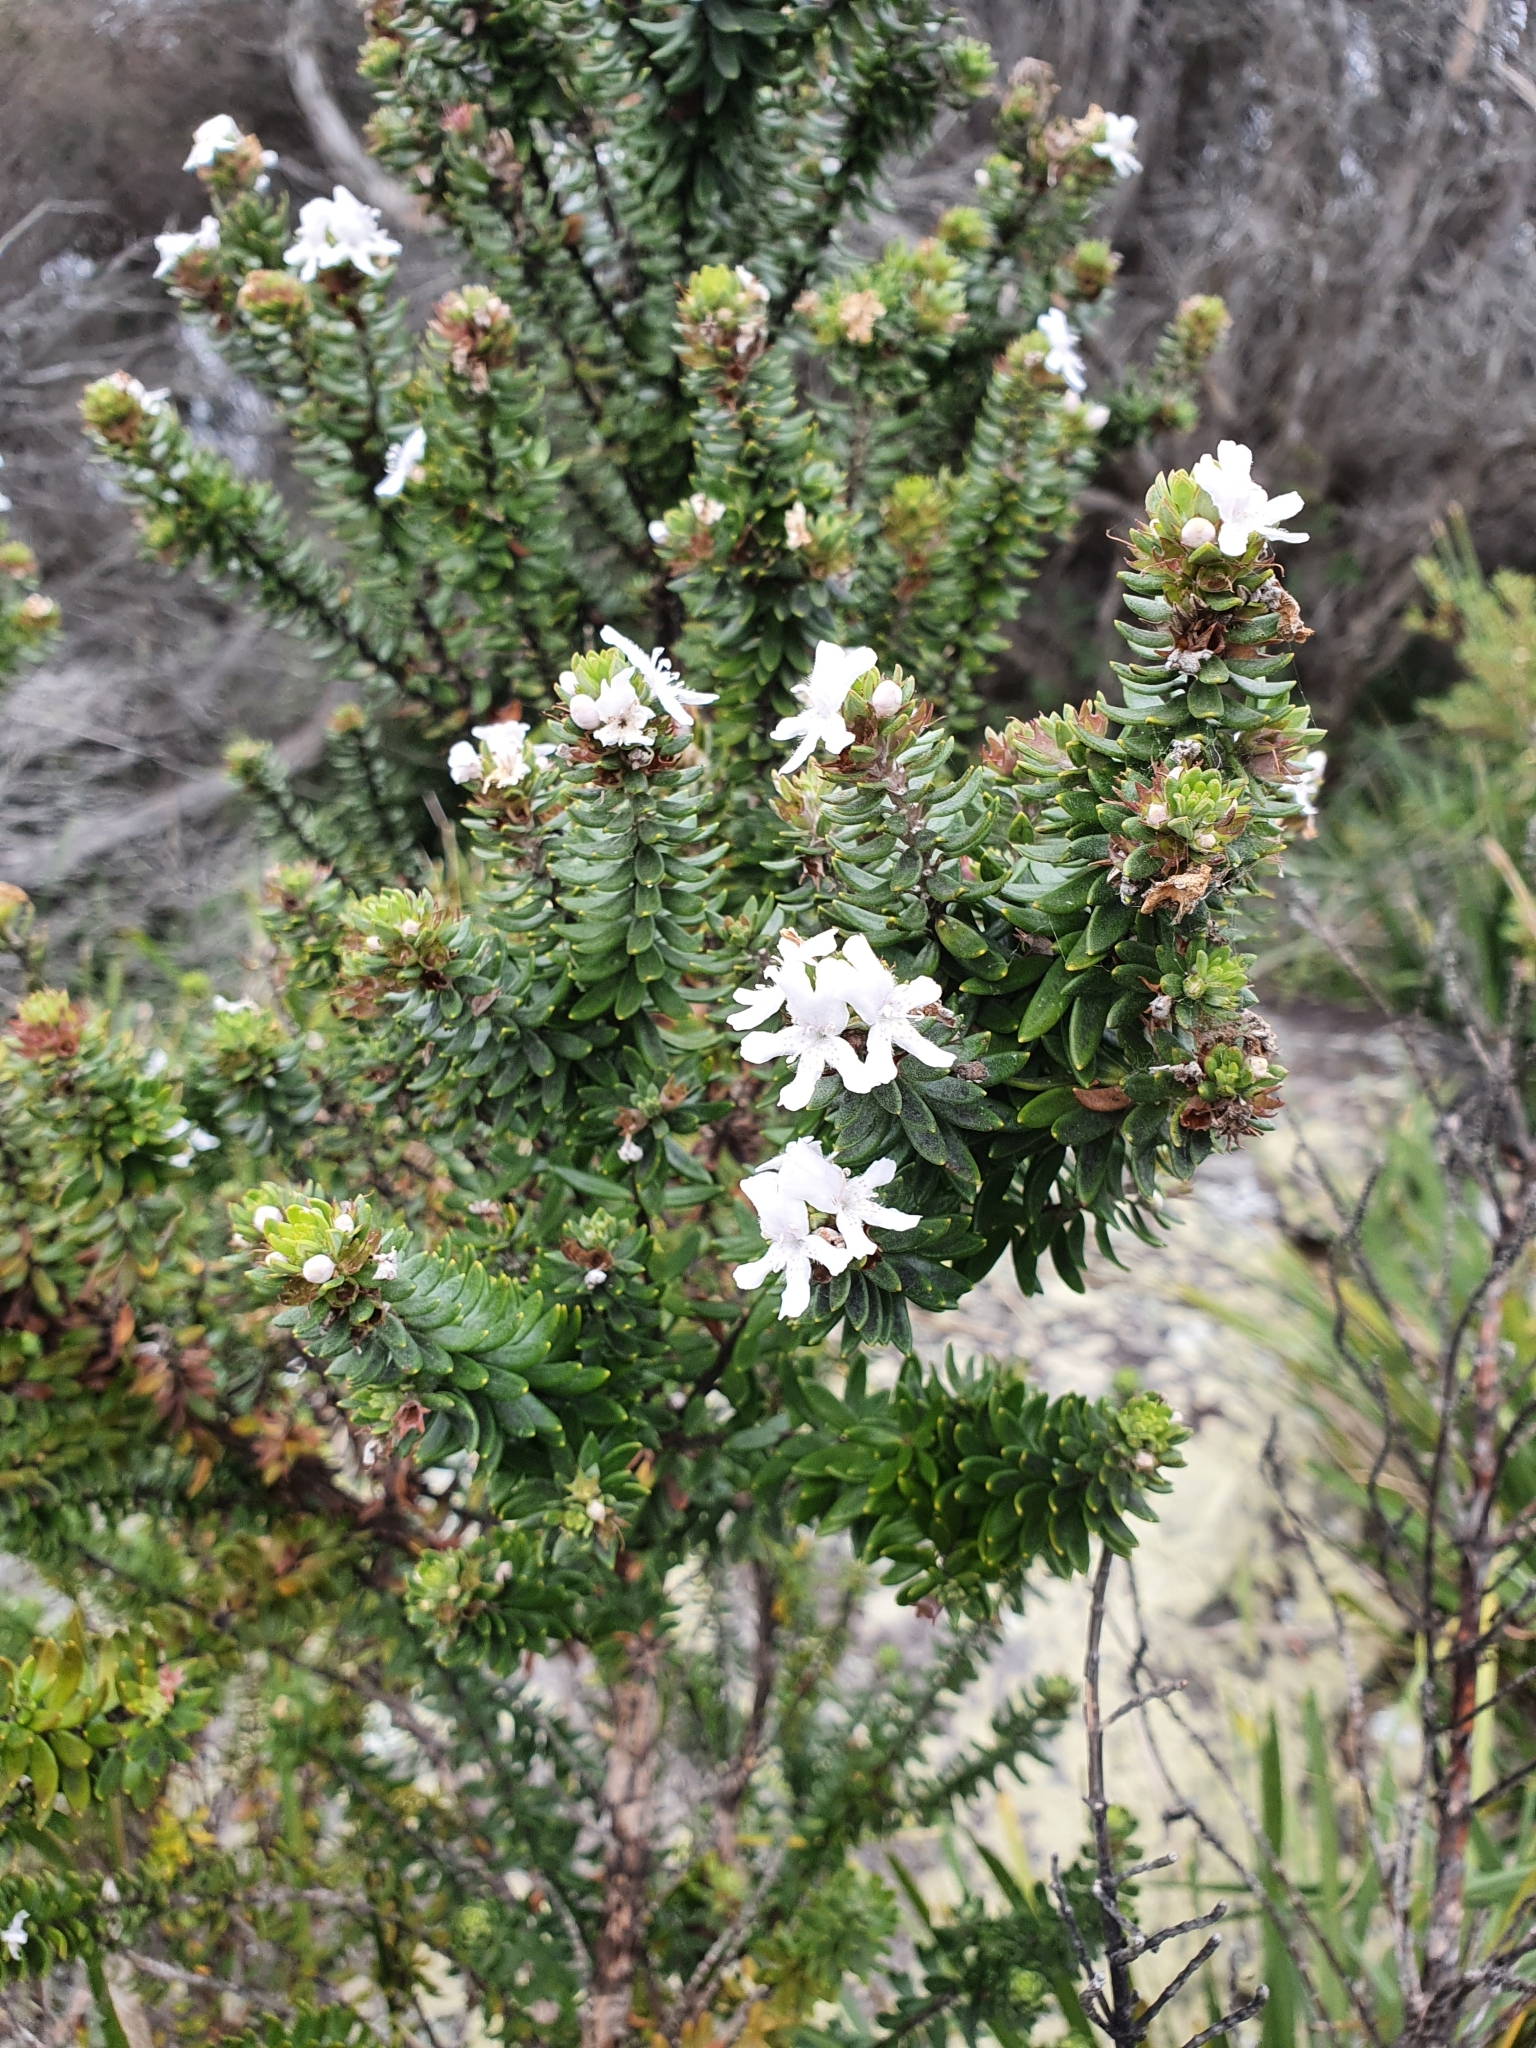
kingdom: Plantae
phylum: Tracheophyta
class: Magnoliopsida
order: Lamiales
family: Lamiaceae
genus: Westringia
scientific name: Westringia fruticosa
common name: Coastal-rosemary
